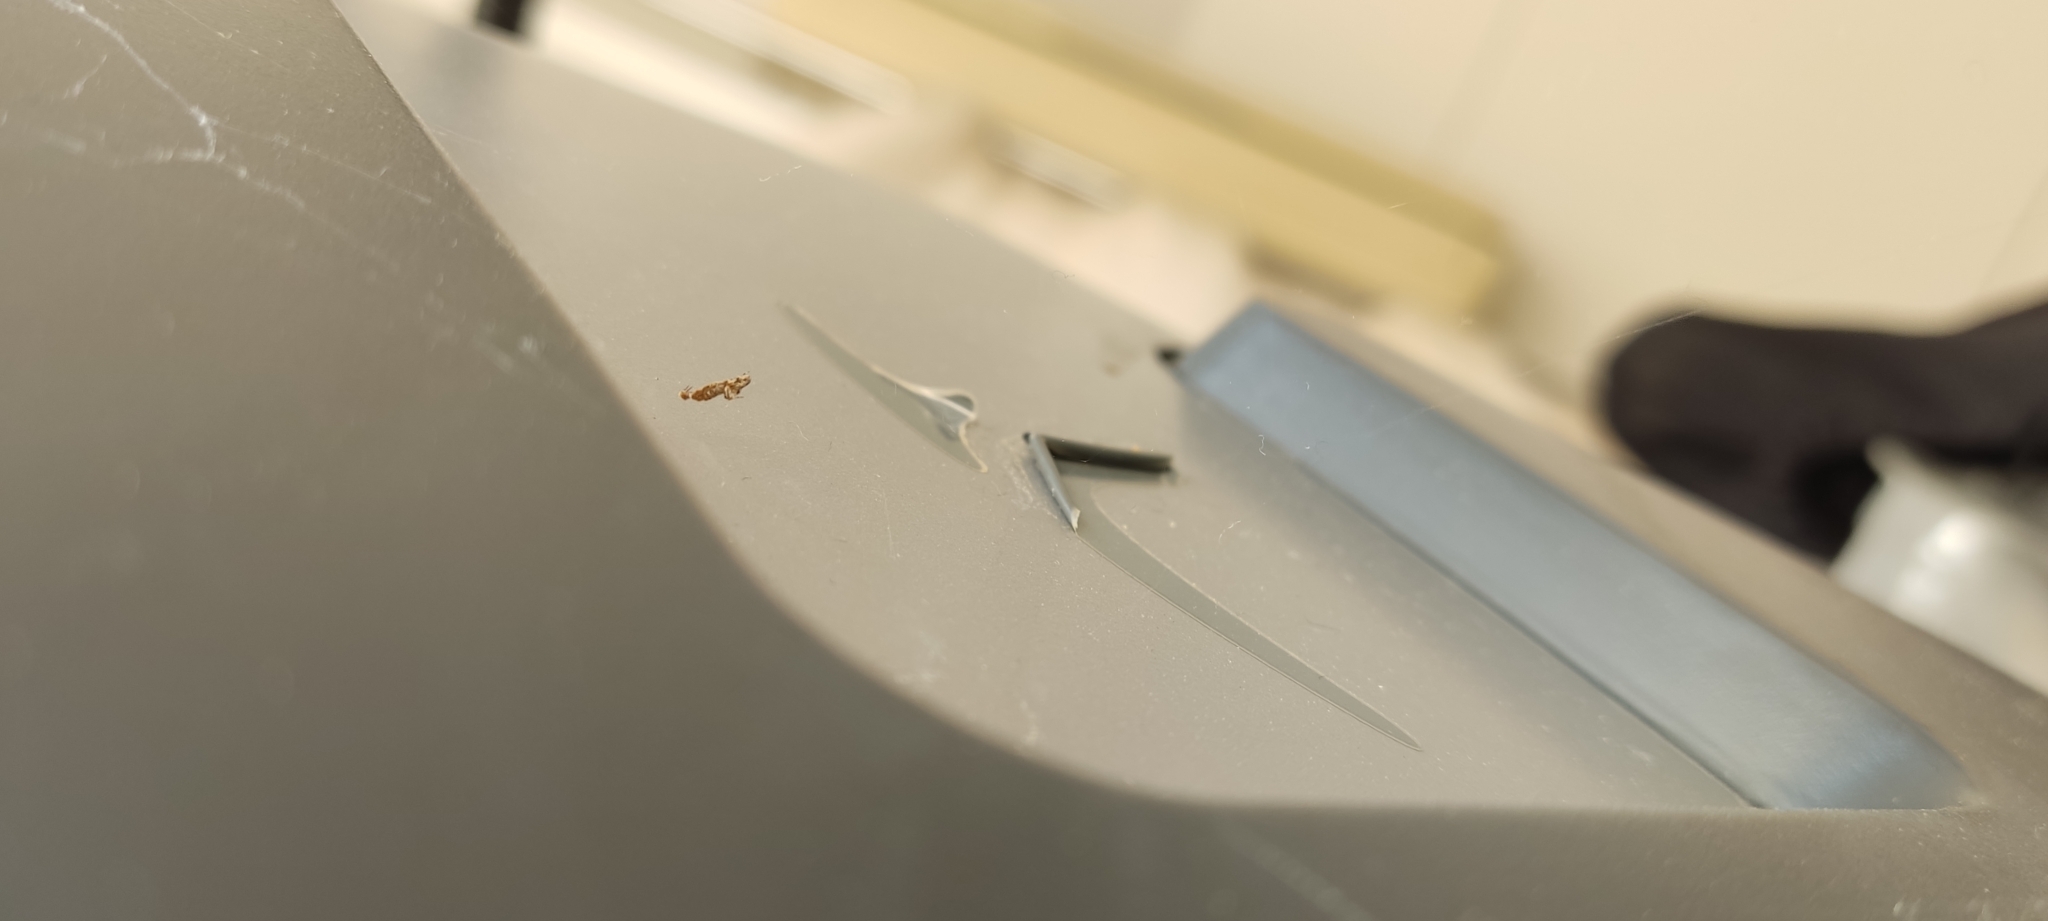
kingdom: Animalia
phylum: Arthropoda
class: Arachnida
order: Araneae
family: Uloboridae
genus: Uloborus
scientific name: Uloborus plumipes
